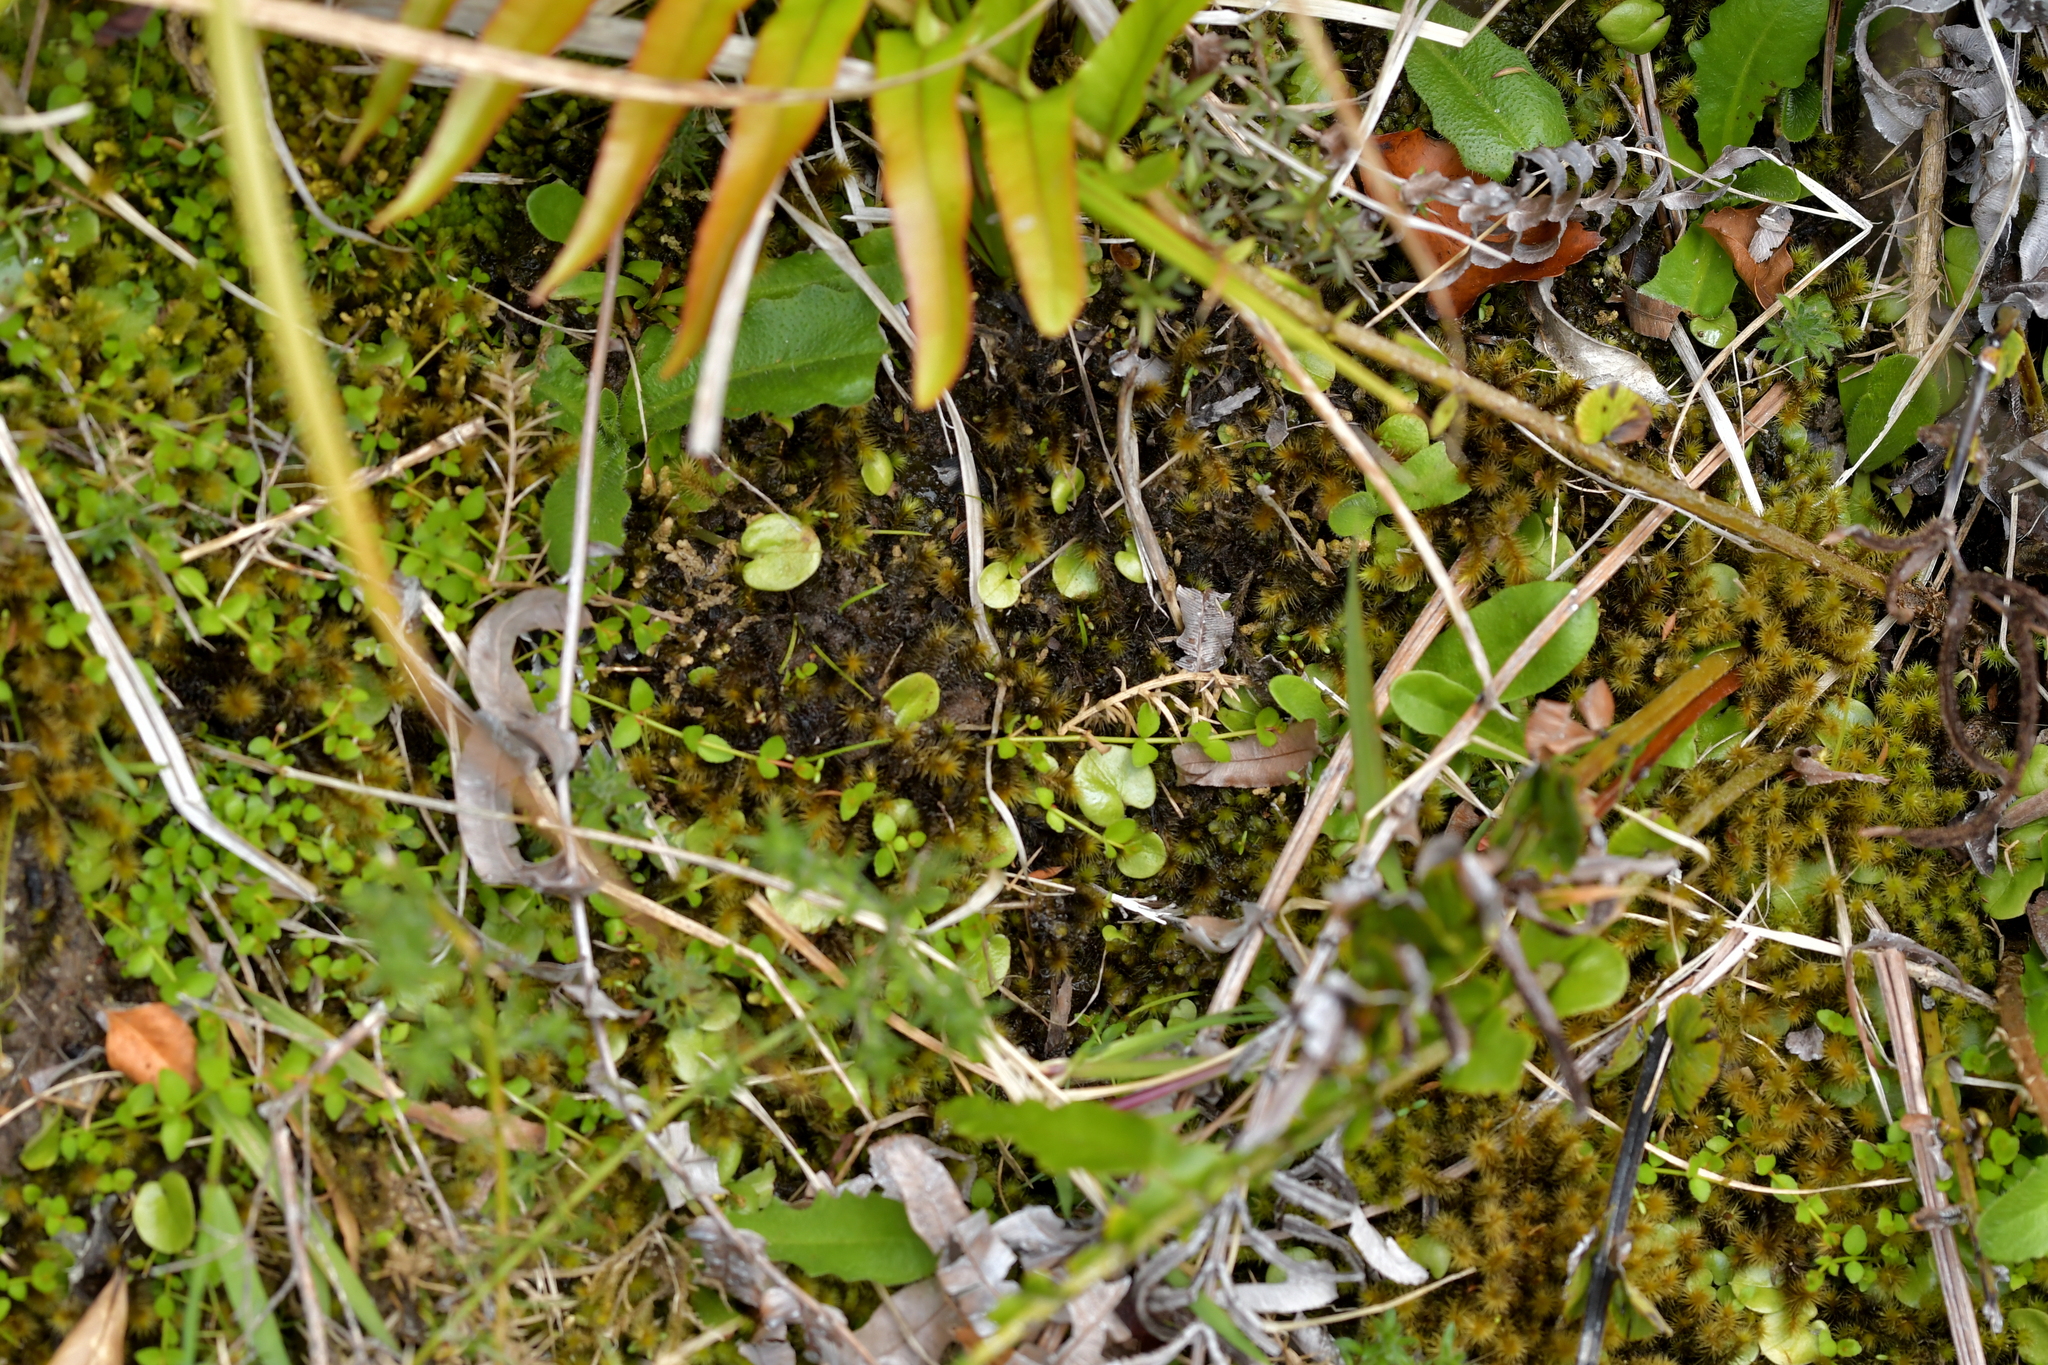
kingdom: Plantae
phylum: Tracheophyta
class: Liliopsida
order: Asparagales
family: Orchidaceae
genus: Corybas
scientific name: Corybas hatchii
